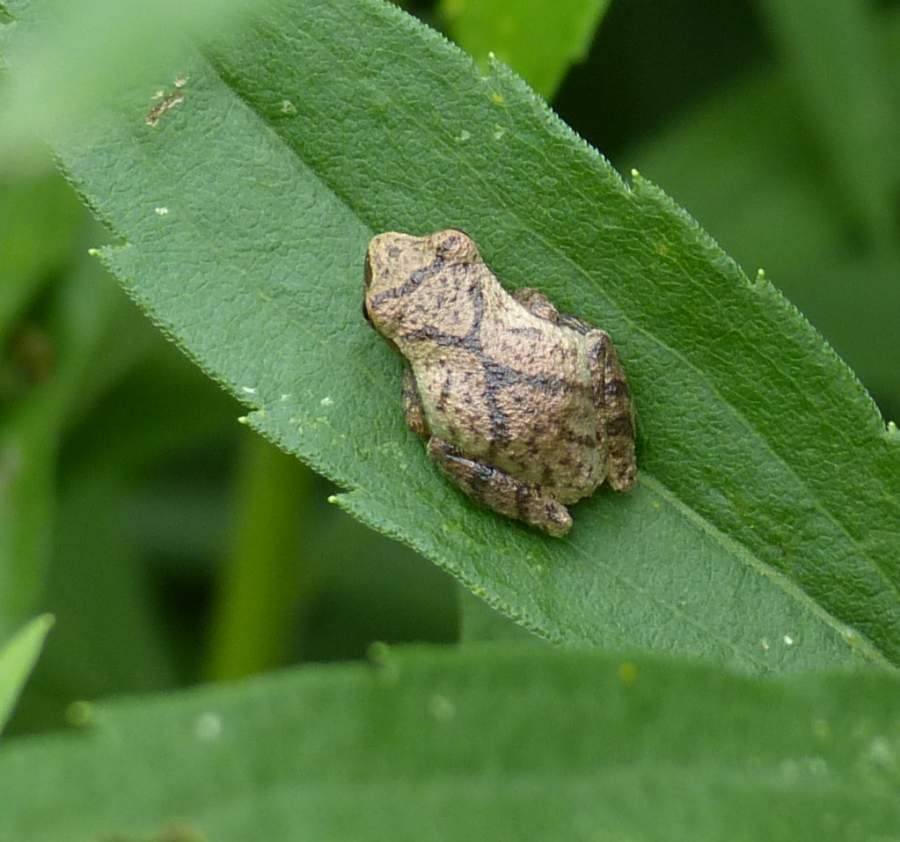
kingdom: Animalia
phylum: Chordata
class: Amphibia
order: Anura
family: Hylidae
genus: Pseudacris
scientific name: Pseudacris crucifer
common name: Spring peeper
